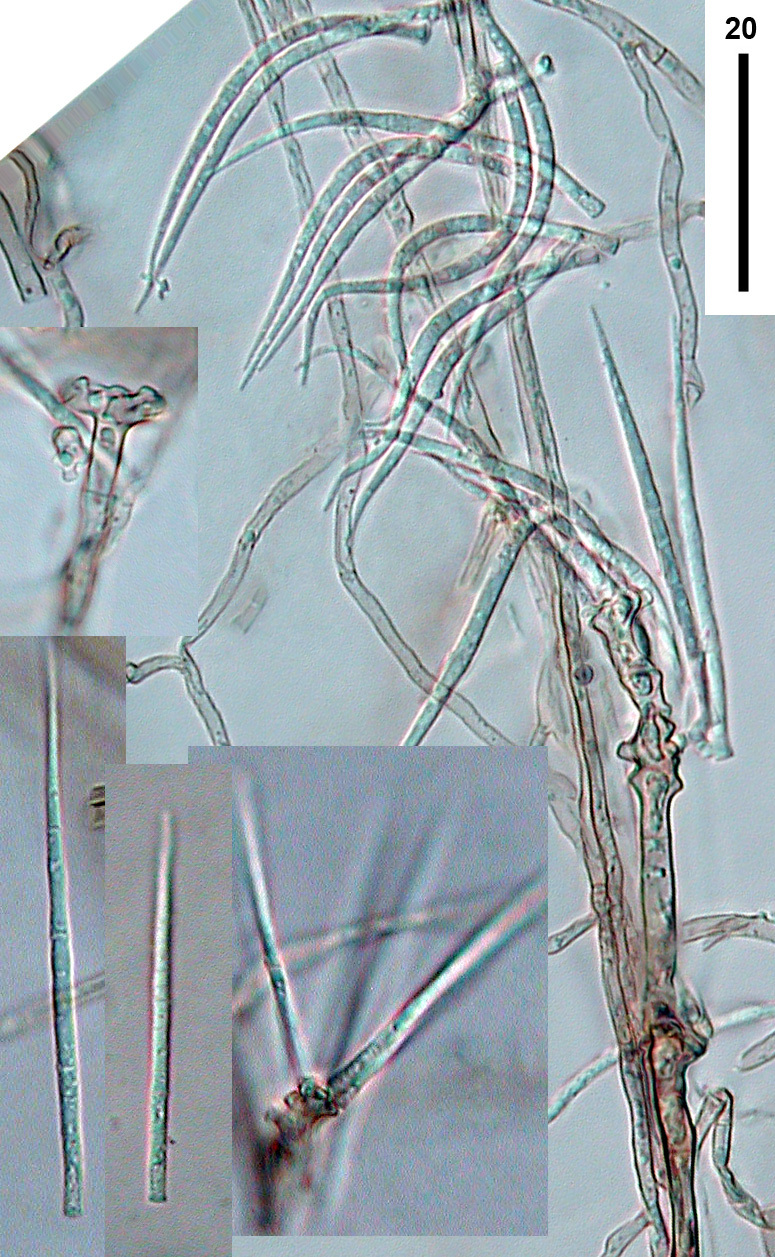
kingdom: Fungi
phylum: Ascomycota
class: Sordariomycetes
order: Xylariales
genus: Subulispora
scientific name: Subulispora britannica
